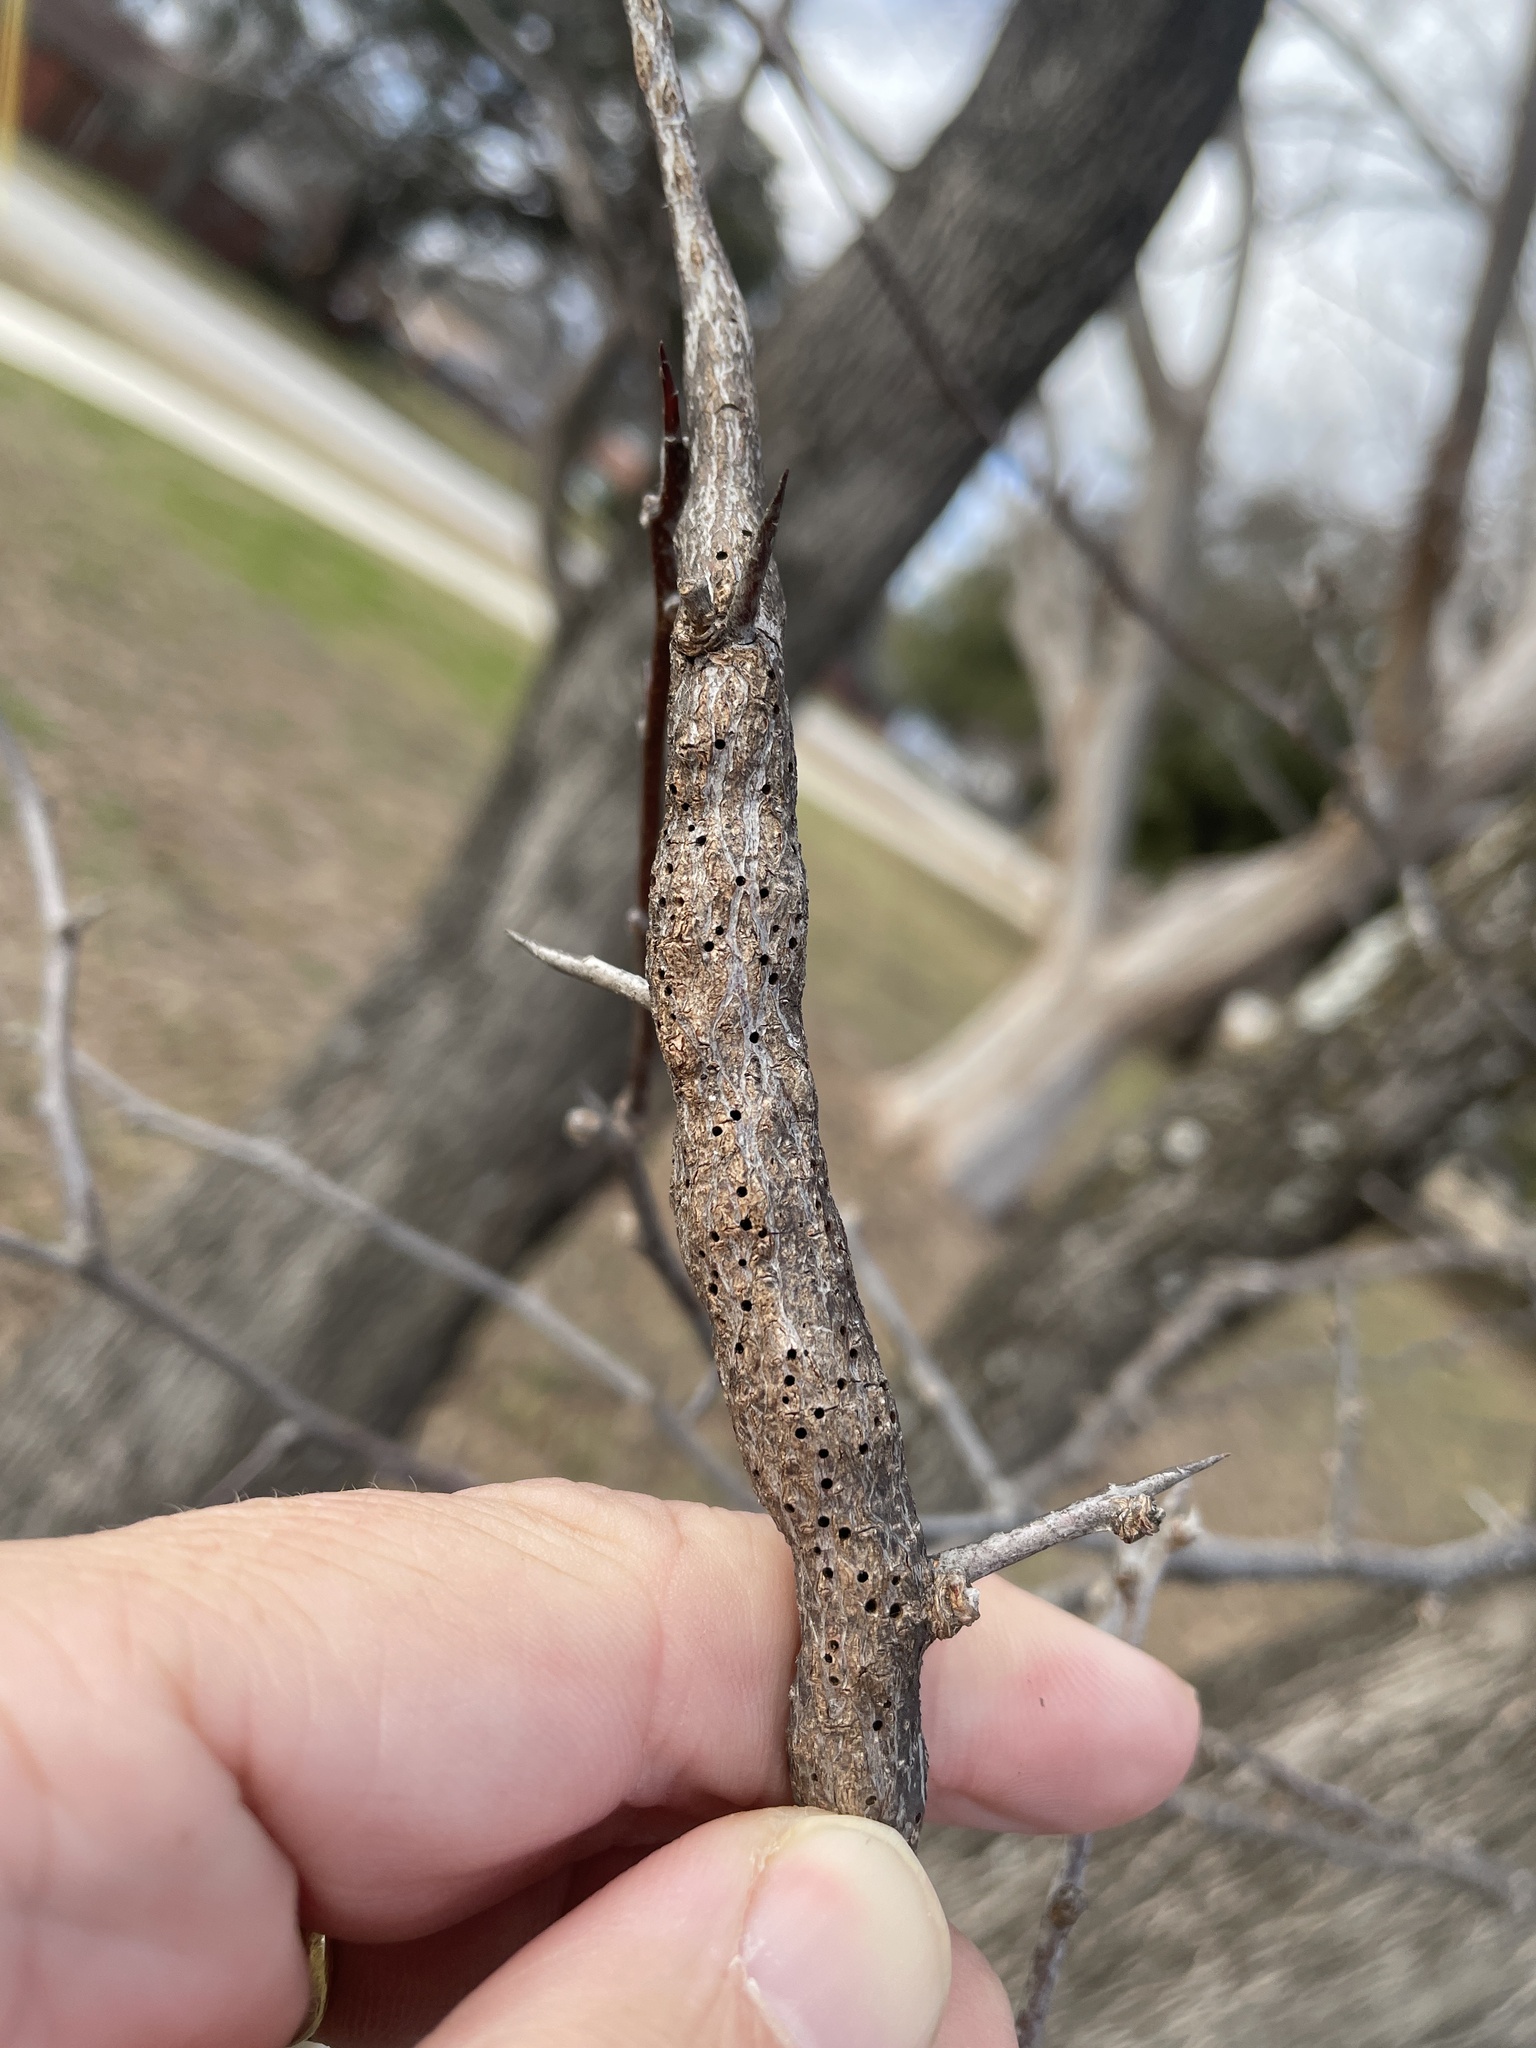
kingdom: Animalia
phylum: Arthropoda
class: Insecta
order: Diptera
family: Cecidomyiidae
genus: Bruggmanniella
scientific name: Bruggmanniella bumeliae
